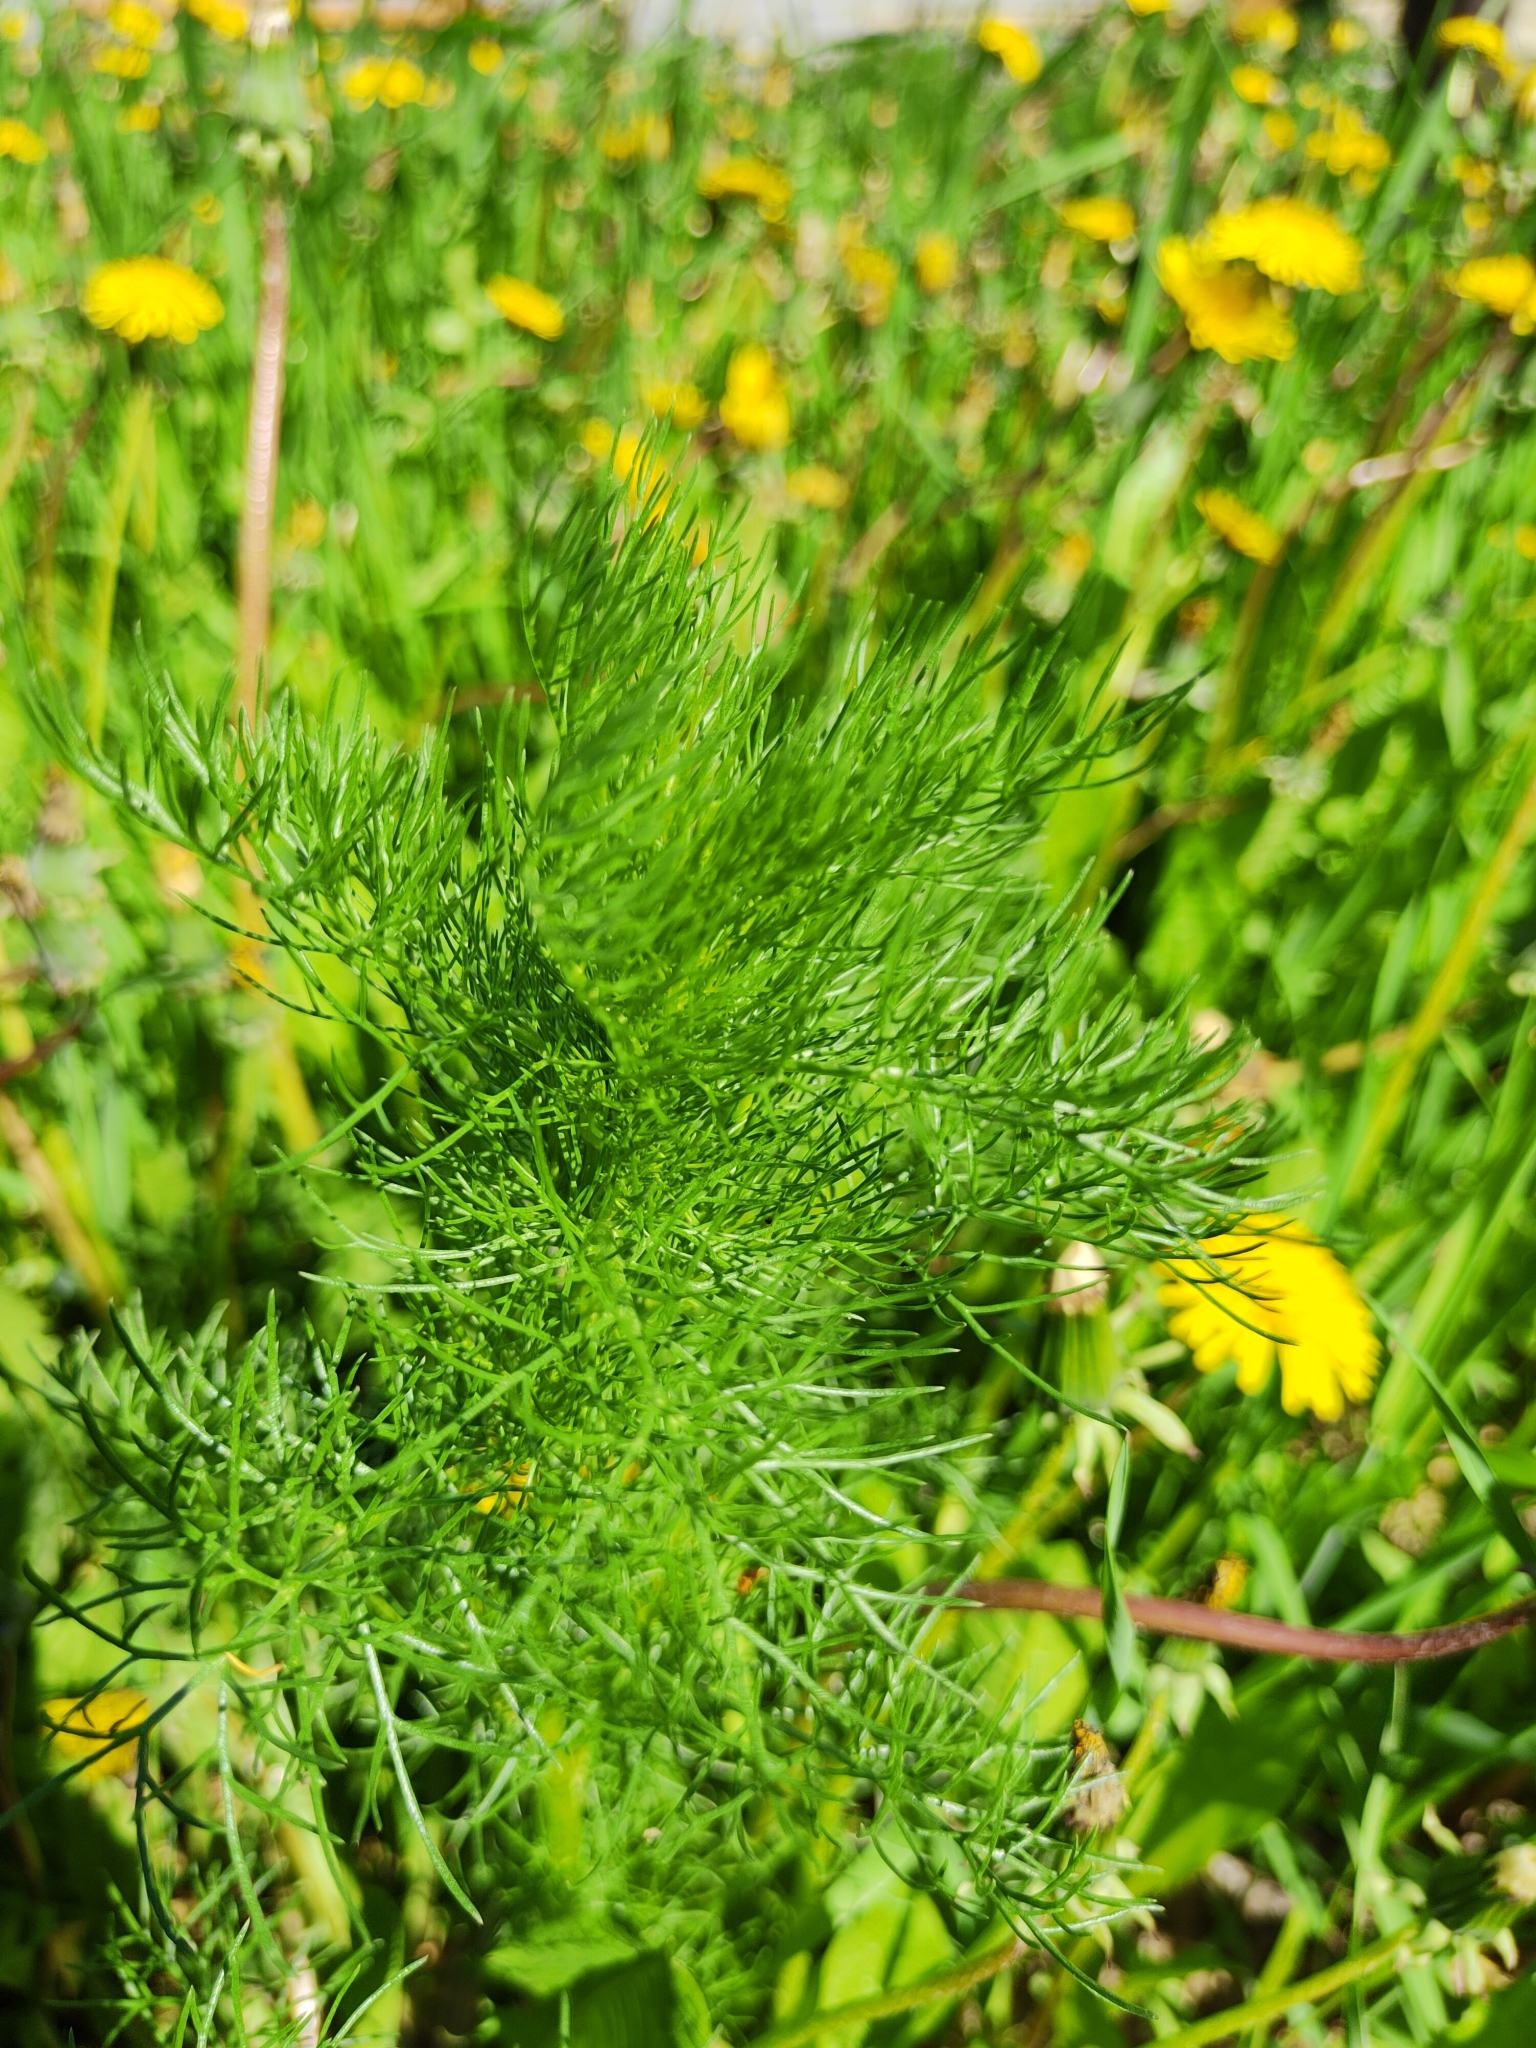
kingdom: Plantae
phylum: Tracheophyta
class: Magnoliopsida
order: Asterales
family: Asteraceae
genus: Tripleurospermum
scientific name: Tripleurospermum inodorum
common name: Scentless mayweed
